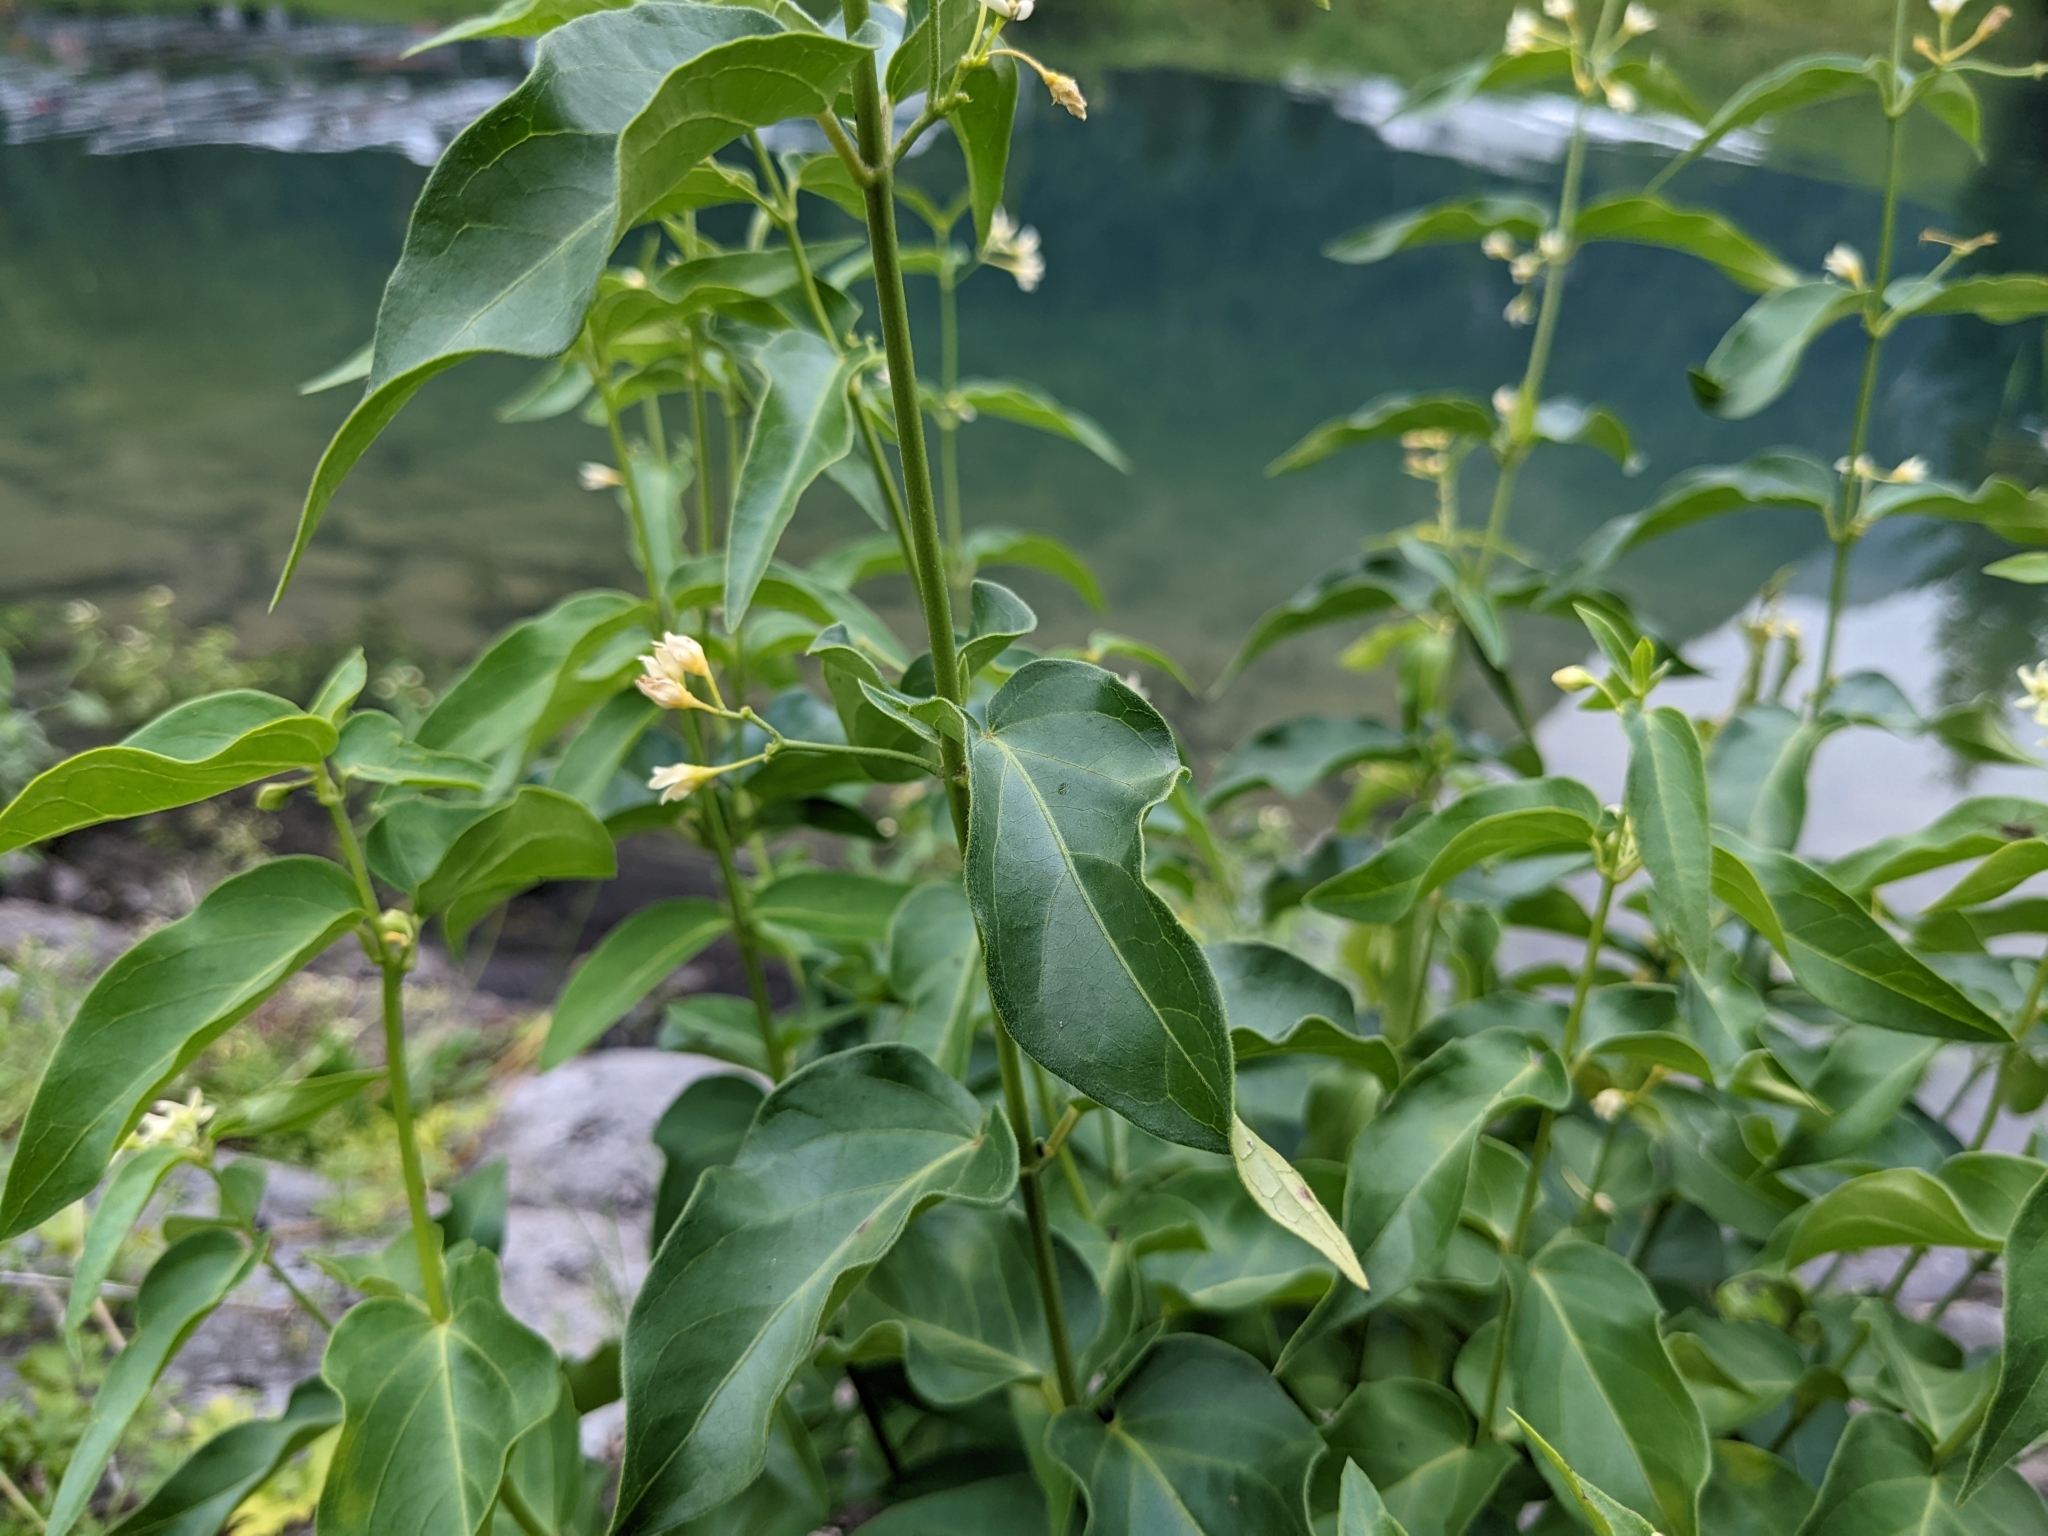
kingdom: Plantae
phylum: Tracheophyta
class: Magnoliopsida
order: Gentianales
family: Apocynaceae
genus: Vincetoxicum
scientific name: Vincetoxicum hirundinaria
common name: White swallowwort
